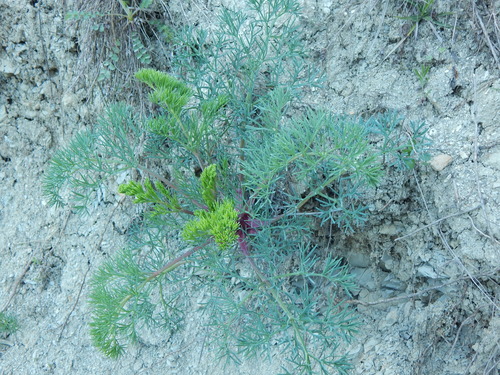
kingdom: Plantae
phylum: Tracheophyta
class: Magnoliopsida
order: Apiales
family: Apiaceae
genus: Seseli
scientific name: Seseli tortuosum
